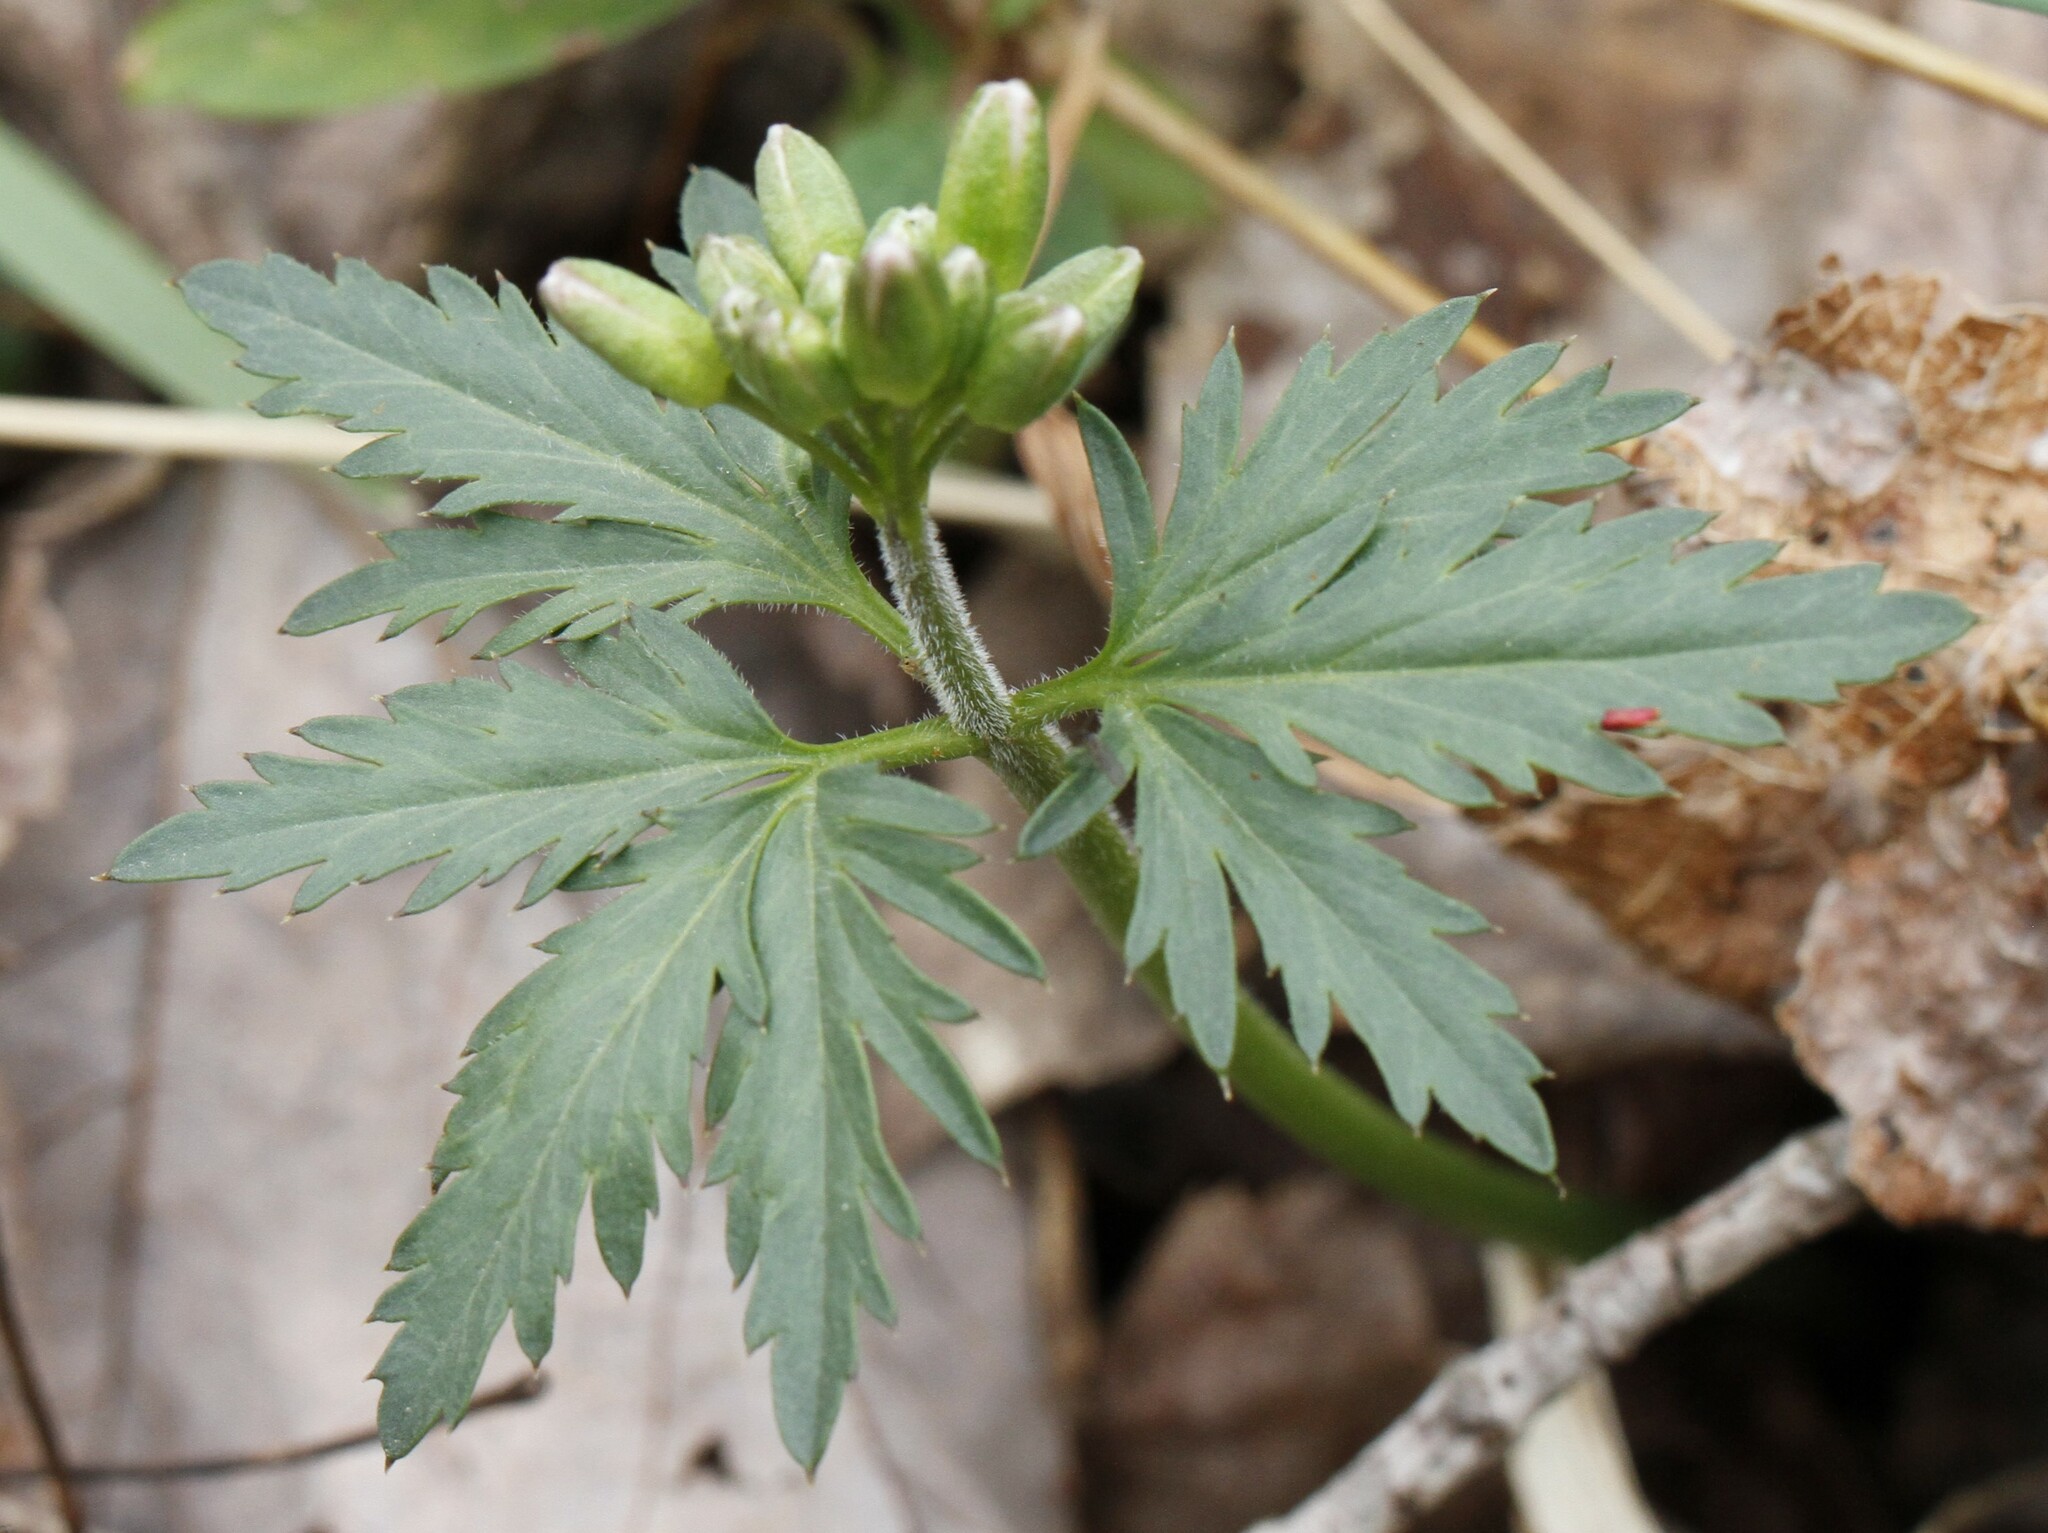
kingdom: Plantae
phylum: Tracheophyta
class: Magnoliopsida
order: Brassicales
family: Brassicaceae
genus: Cardamine
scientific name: Cardamine concatenata
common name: Cut-leaf toothcup
